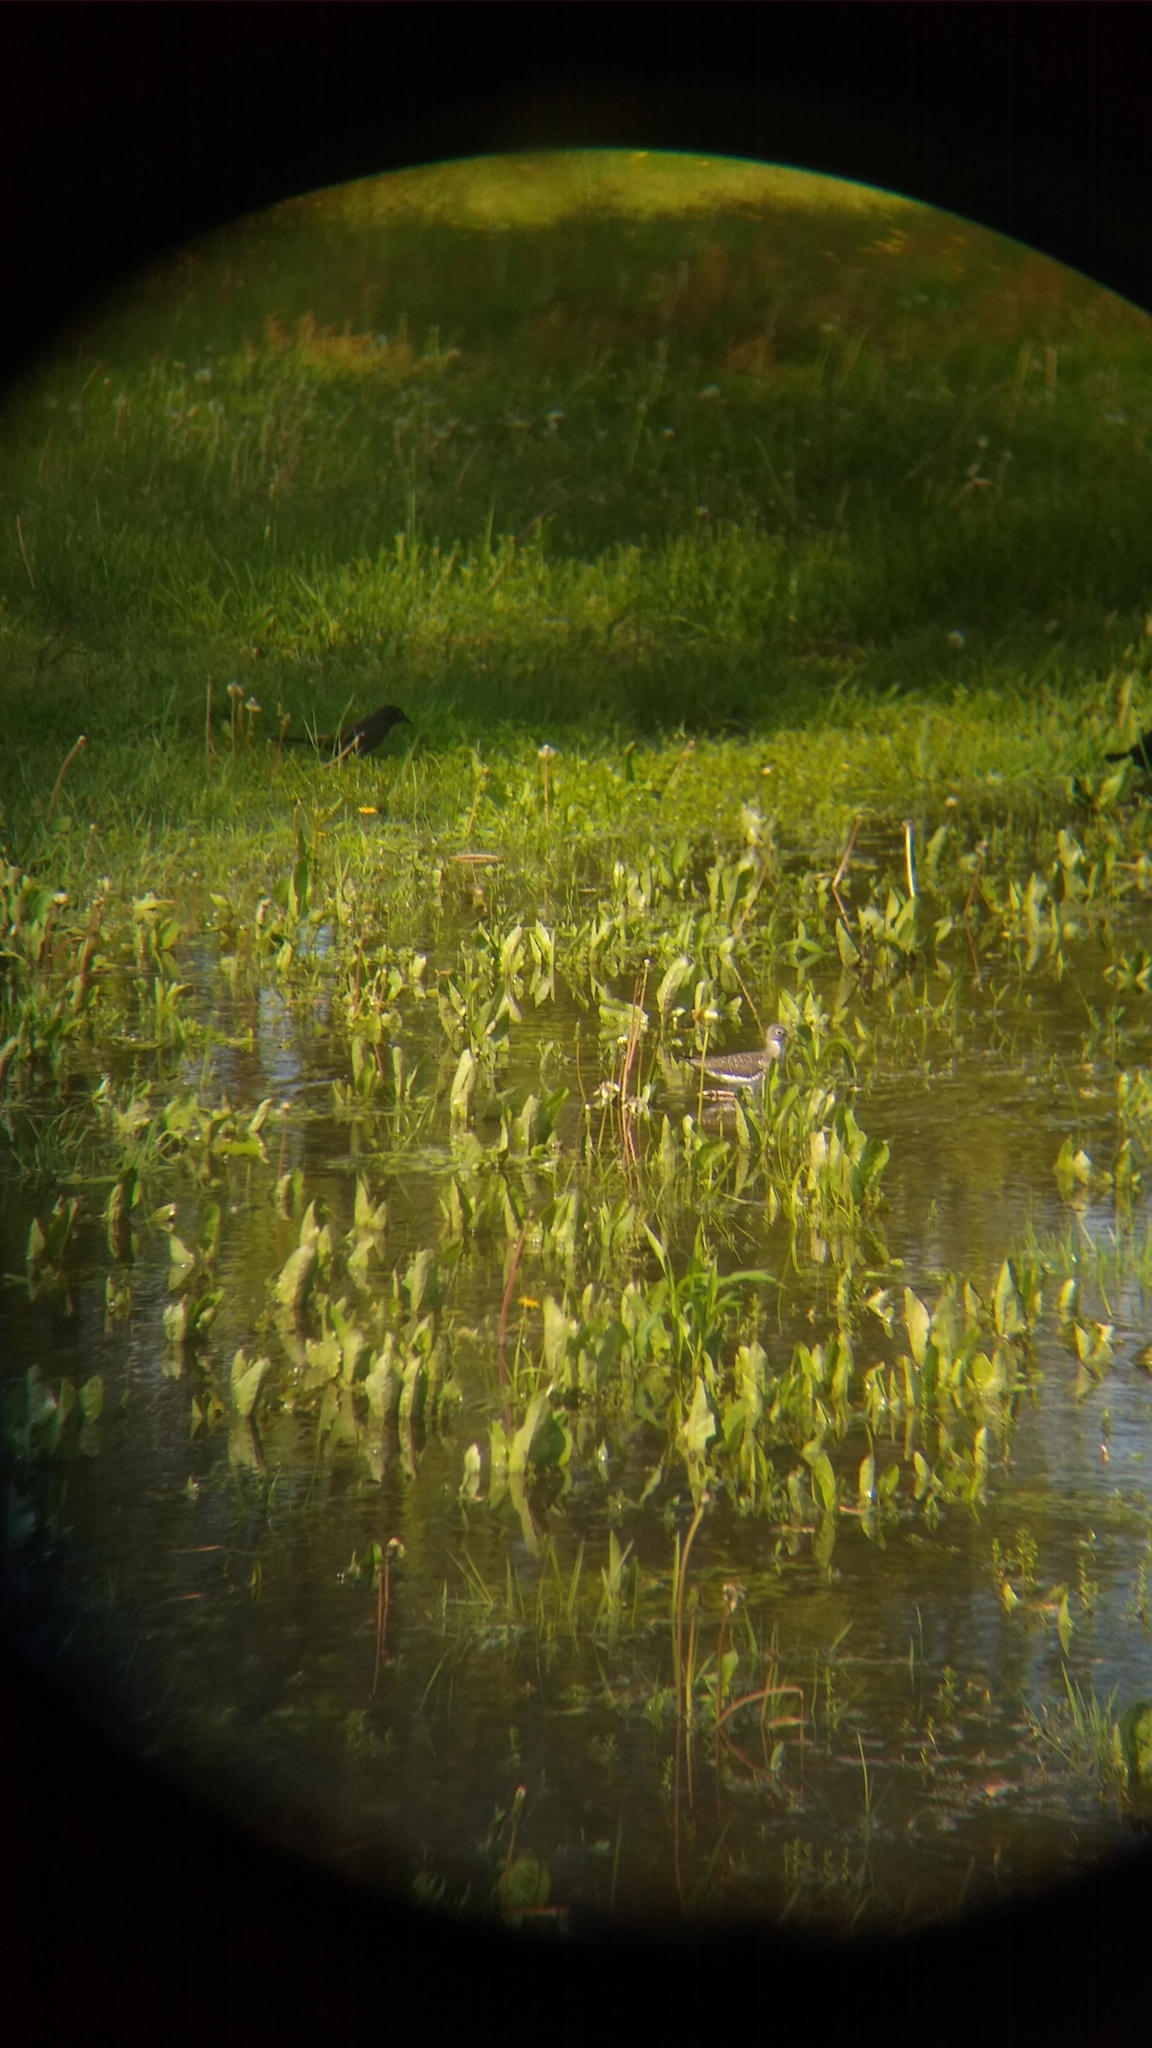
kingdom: Animalia
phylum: Chordata
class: Aves
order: Charadriiformes
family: Scolopacidae
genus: Tringa
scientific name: Tringa solitaria
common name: Solitary sandpiper
